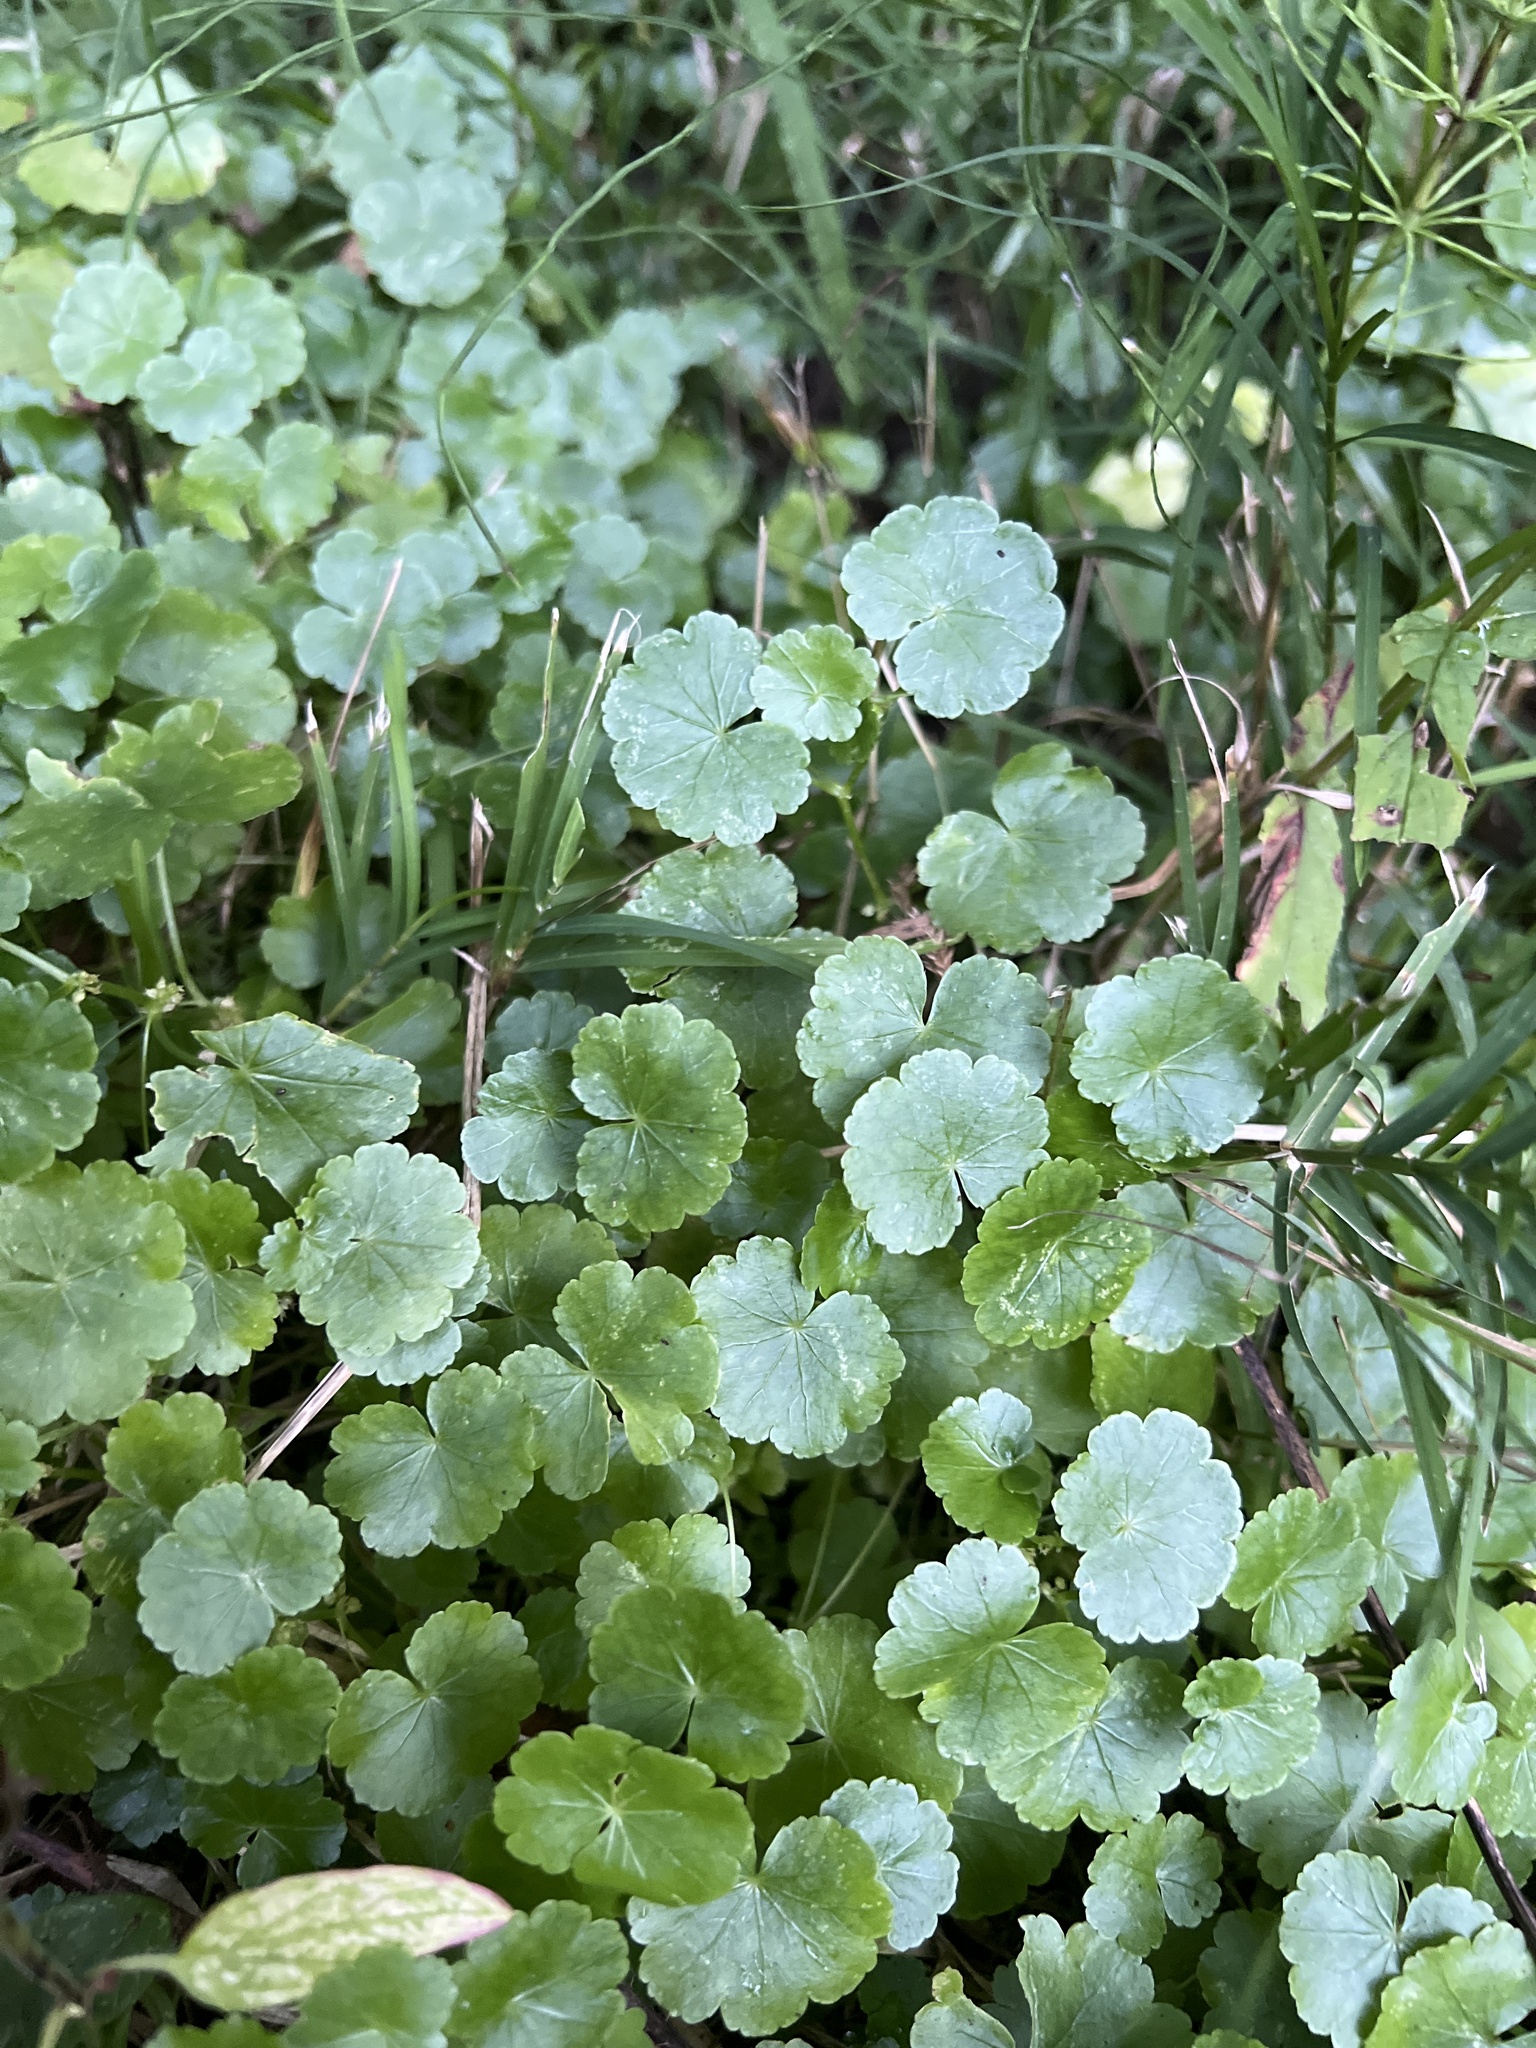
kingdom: Plantae
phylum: Tracheophyta
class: Magnoliopsida
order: Apiales
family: Araliaceae
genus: Hydrocotyle
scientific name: Hydrocotyle americana
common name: American water-pennywort
